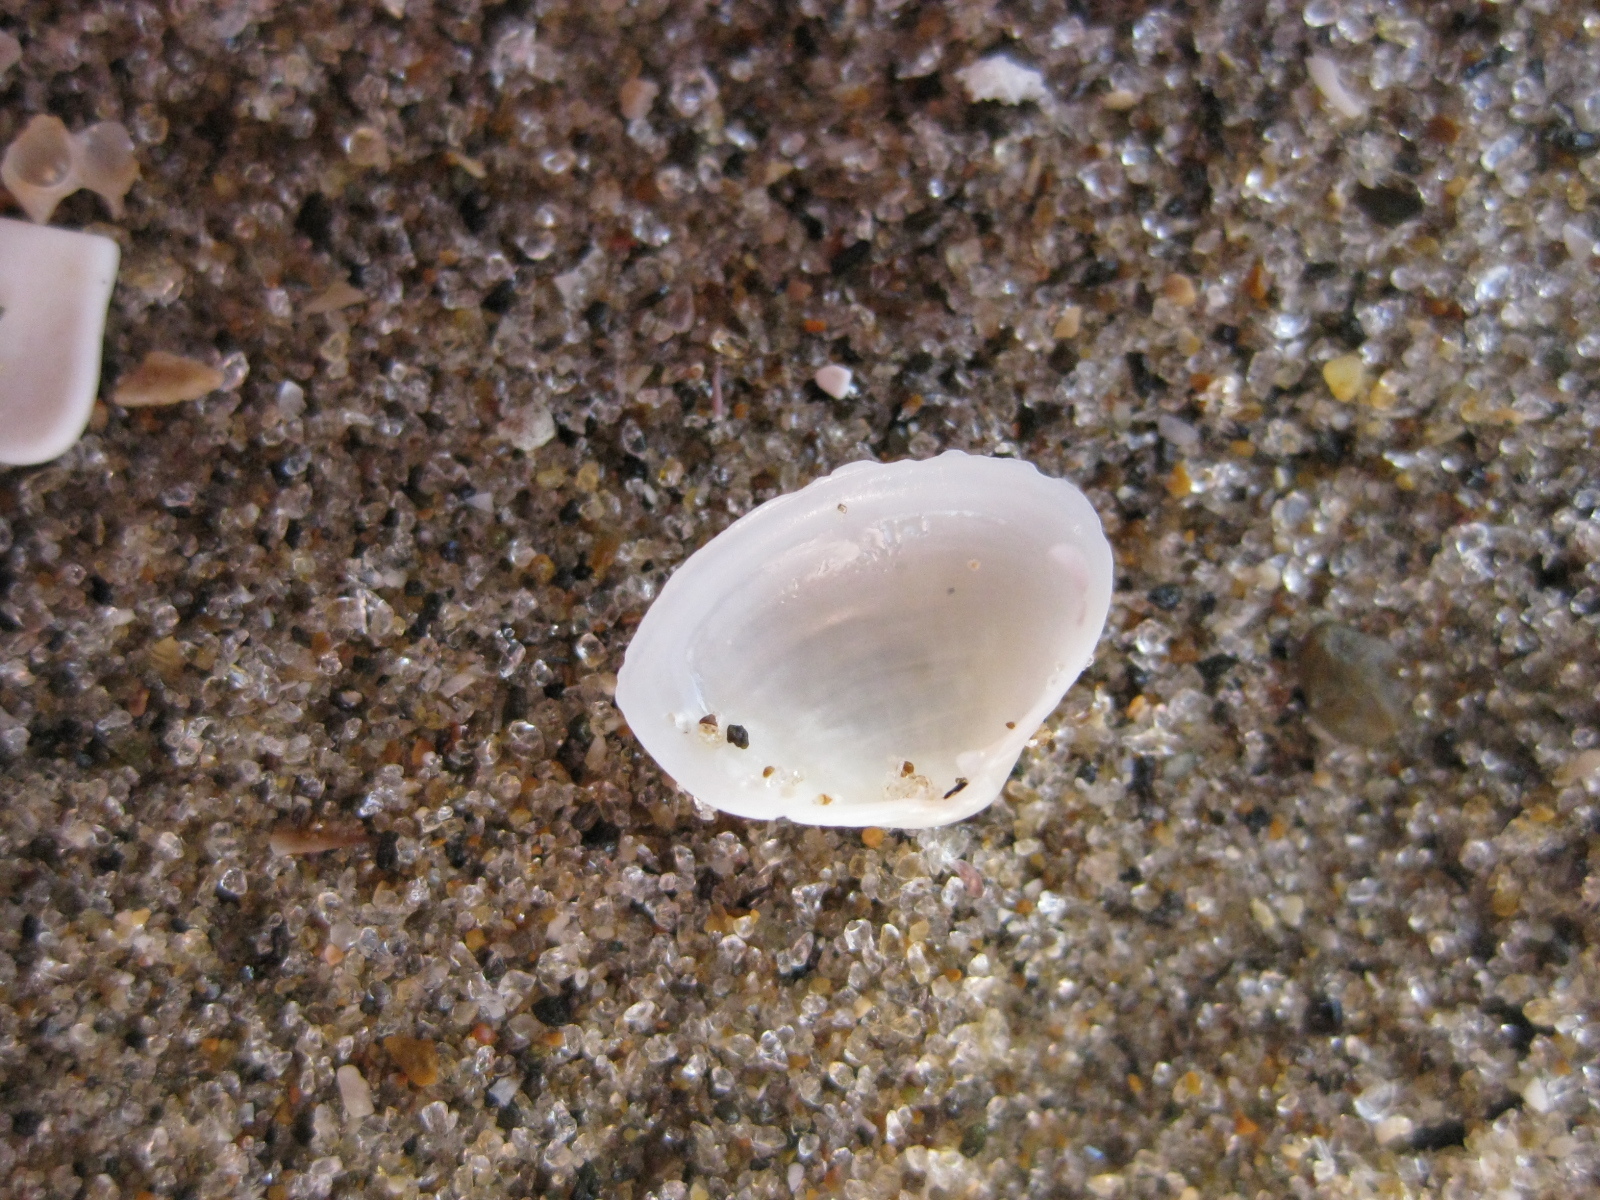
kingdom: Animalia
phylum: Mollusca
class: Bivalvia
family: Myochamidae
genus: Hunkydora
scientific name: Hunkydora novozelandica
